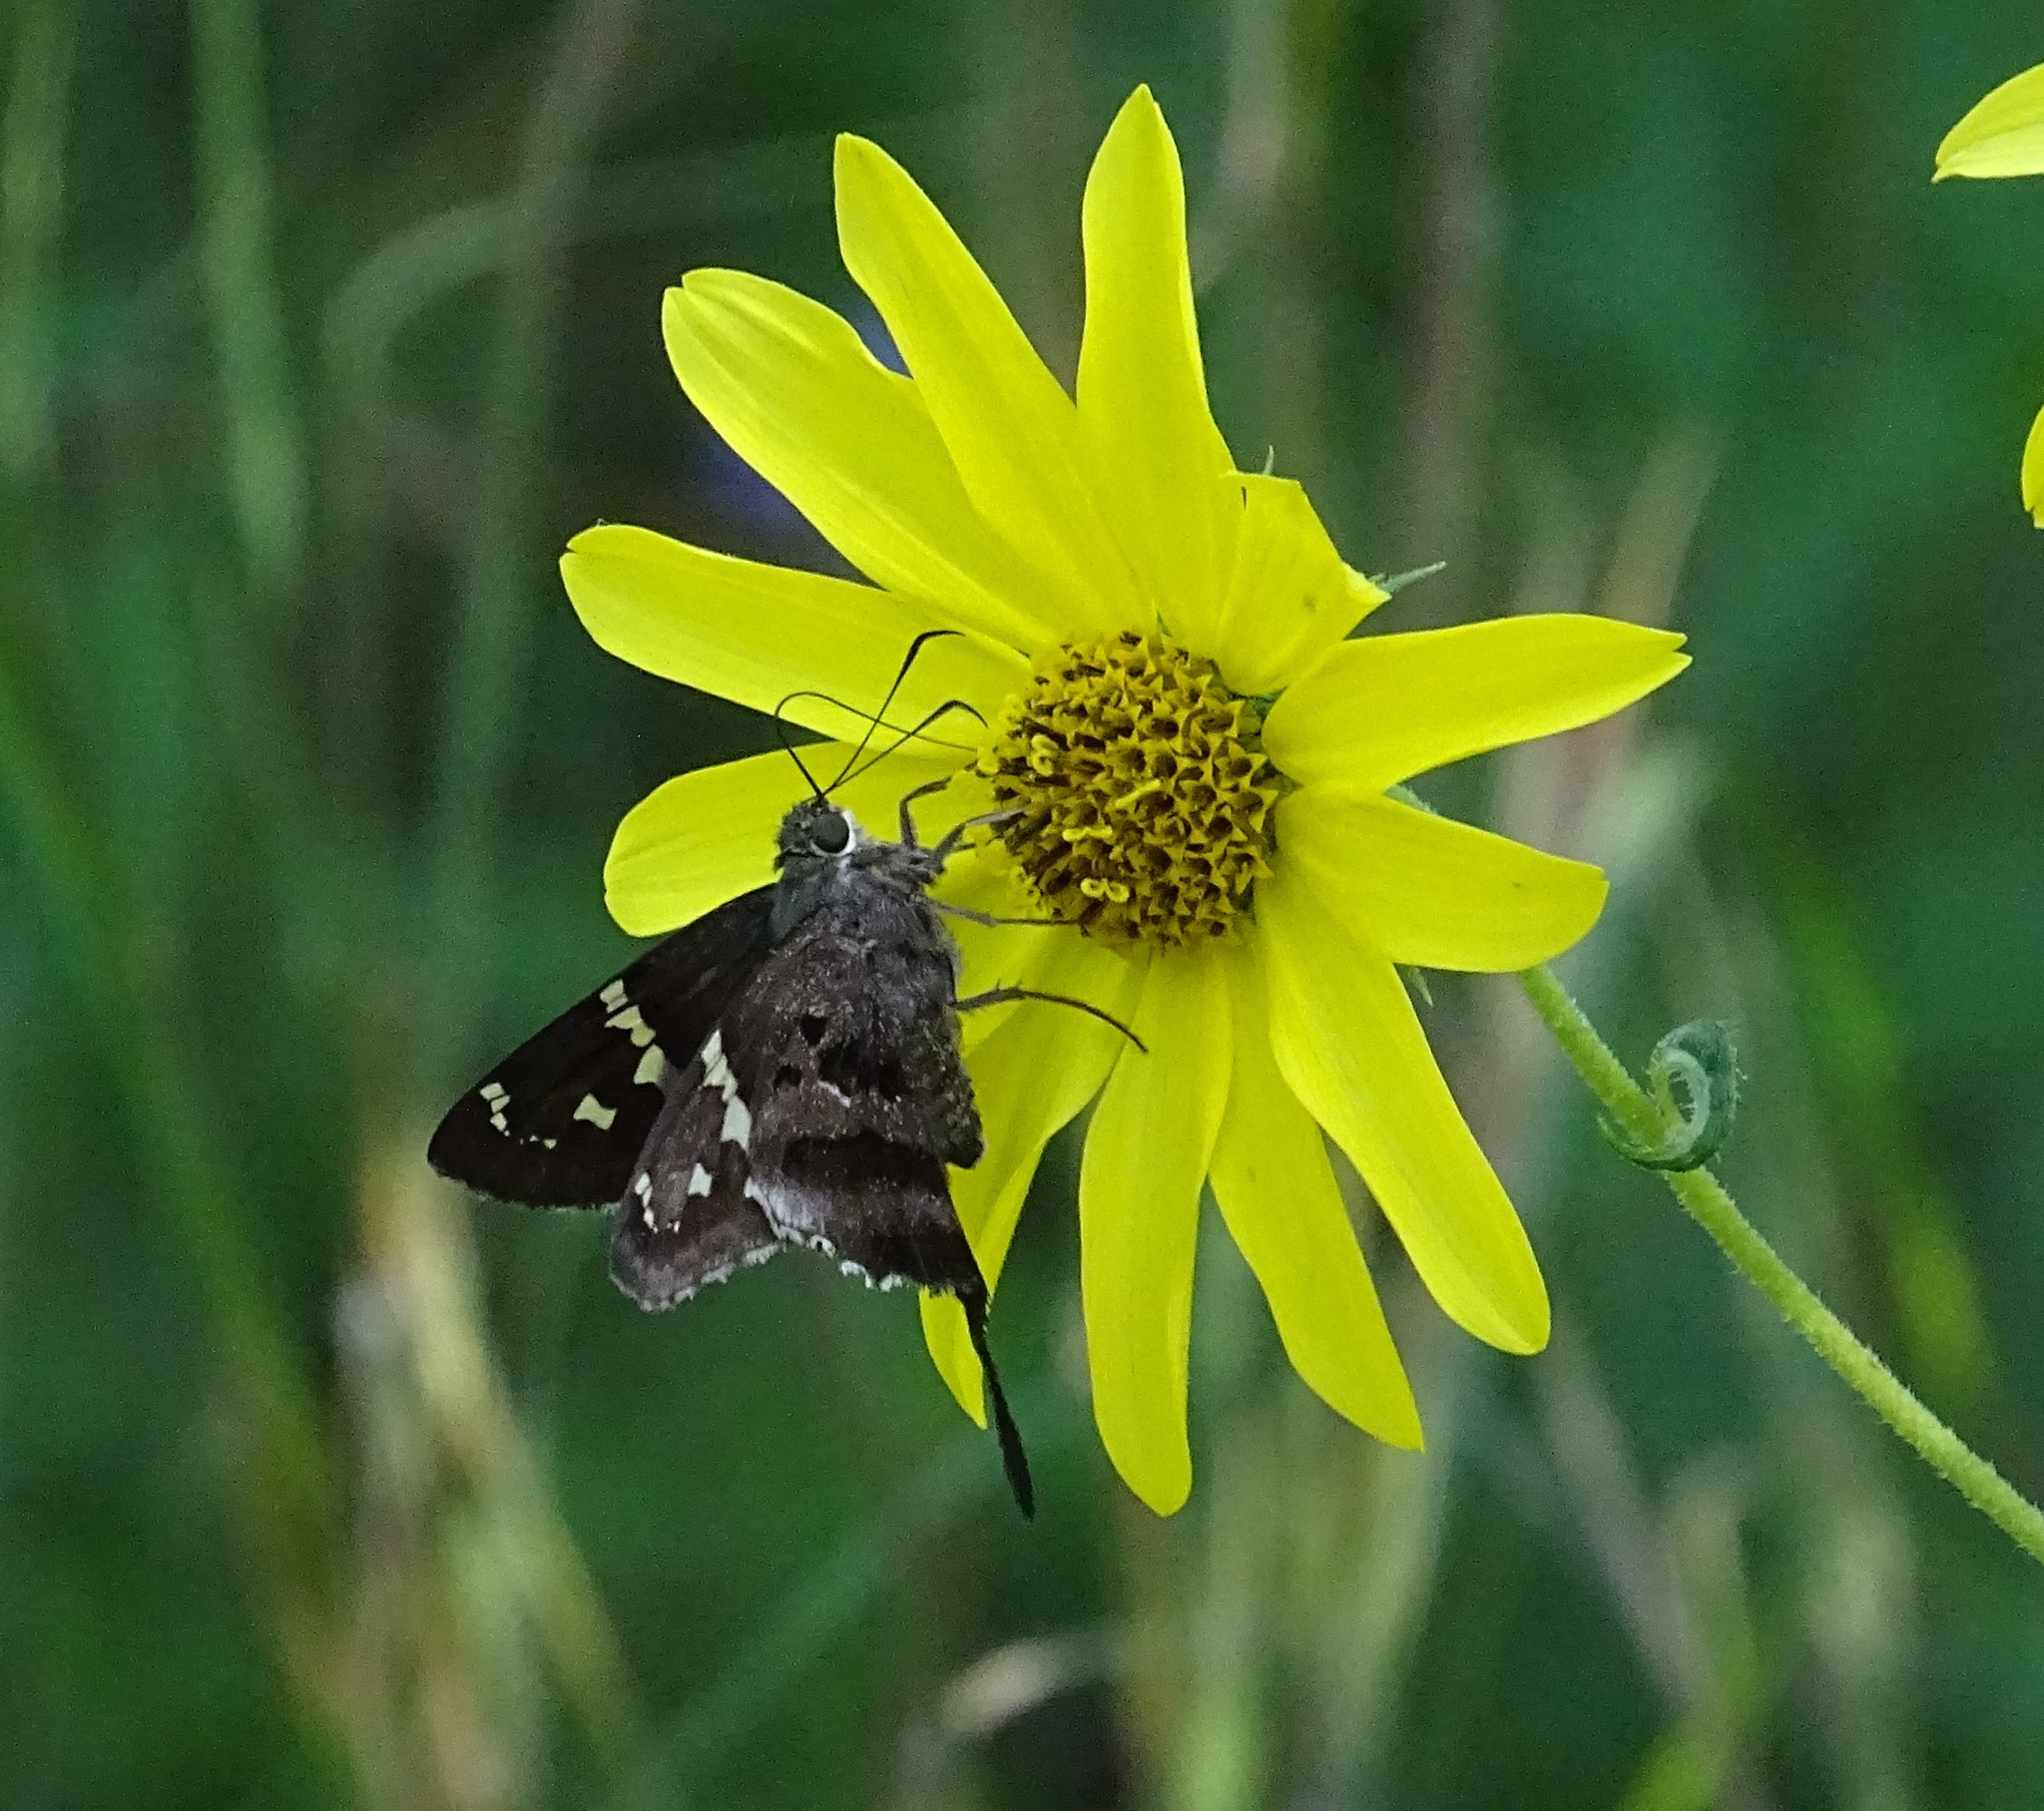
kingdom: Animalia
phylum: Arthropoda
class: Insecta
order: Lepidoptera
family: Hesperiidae
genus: Urbanus
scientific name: Urbanus proteus
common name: Long-tailed skipper
